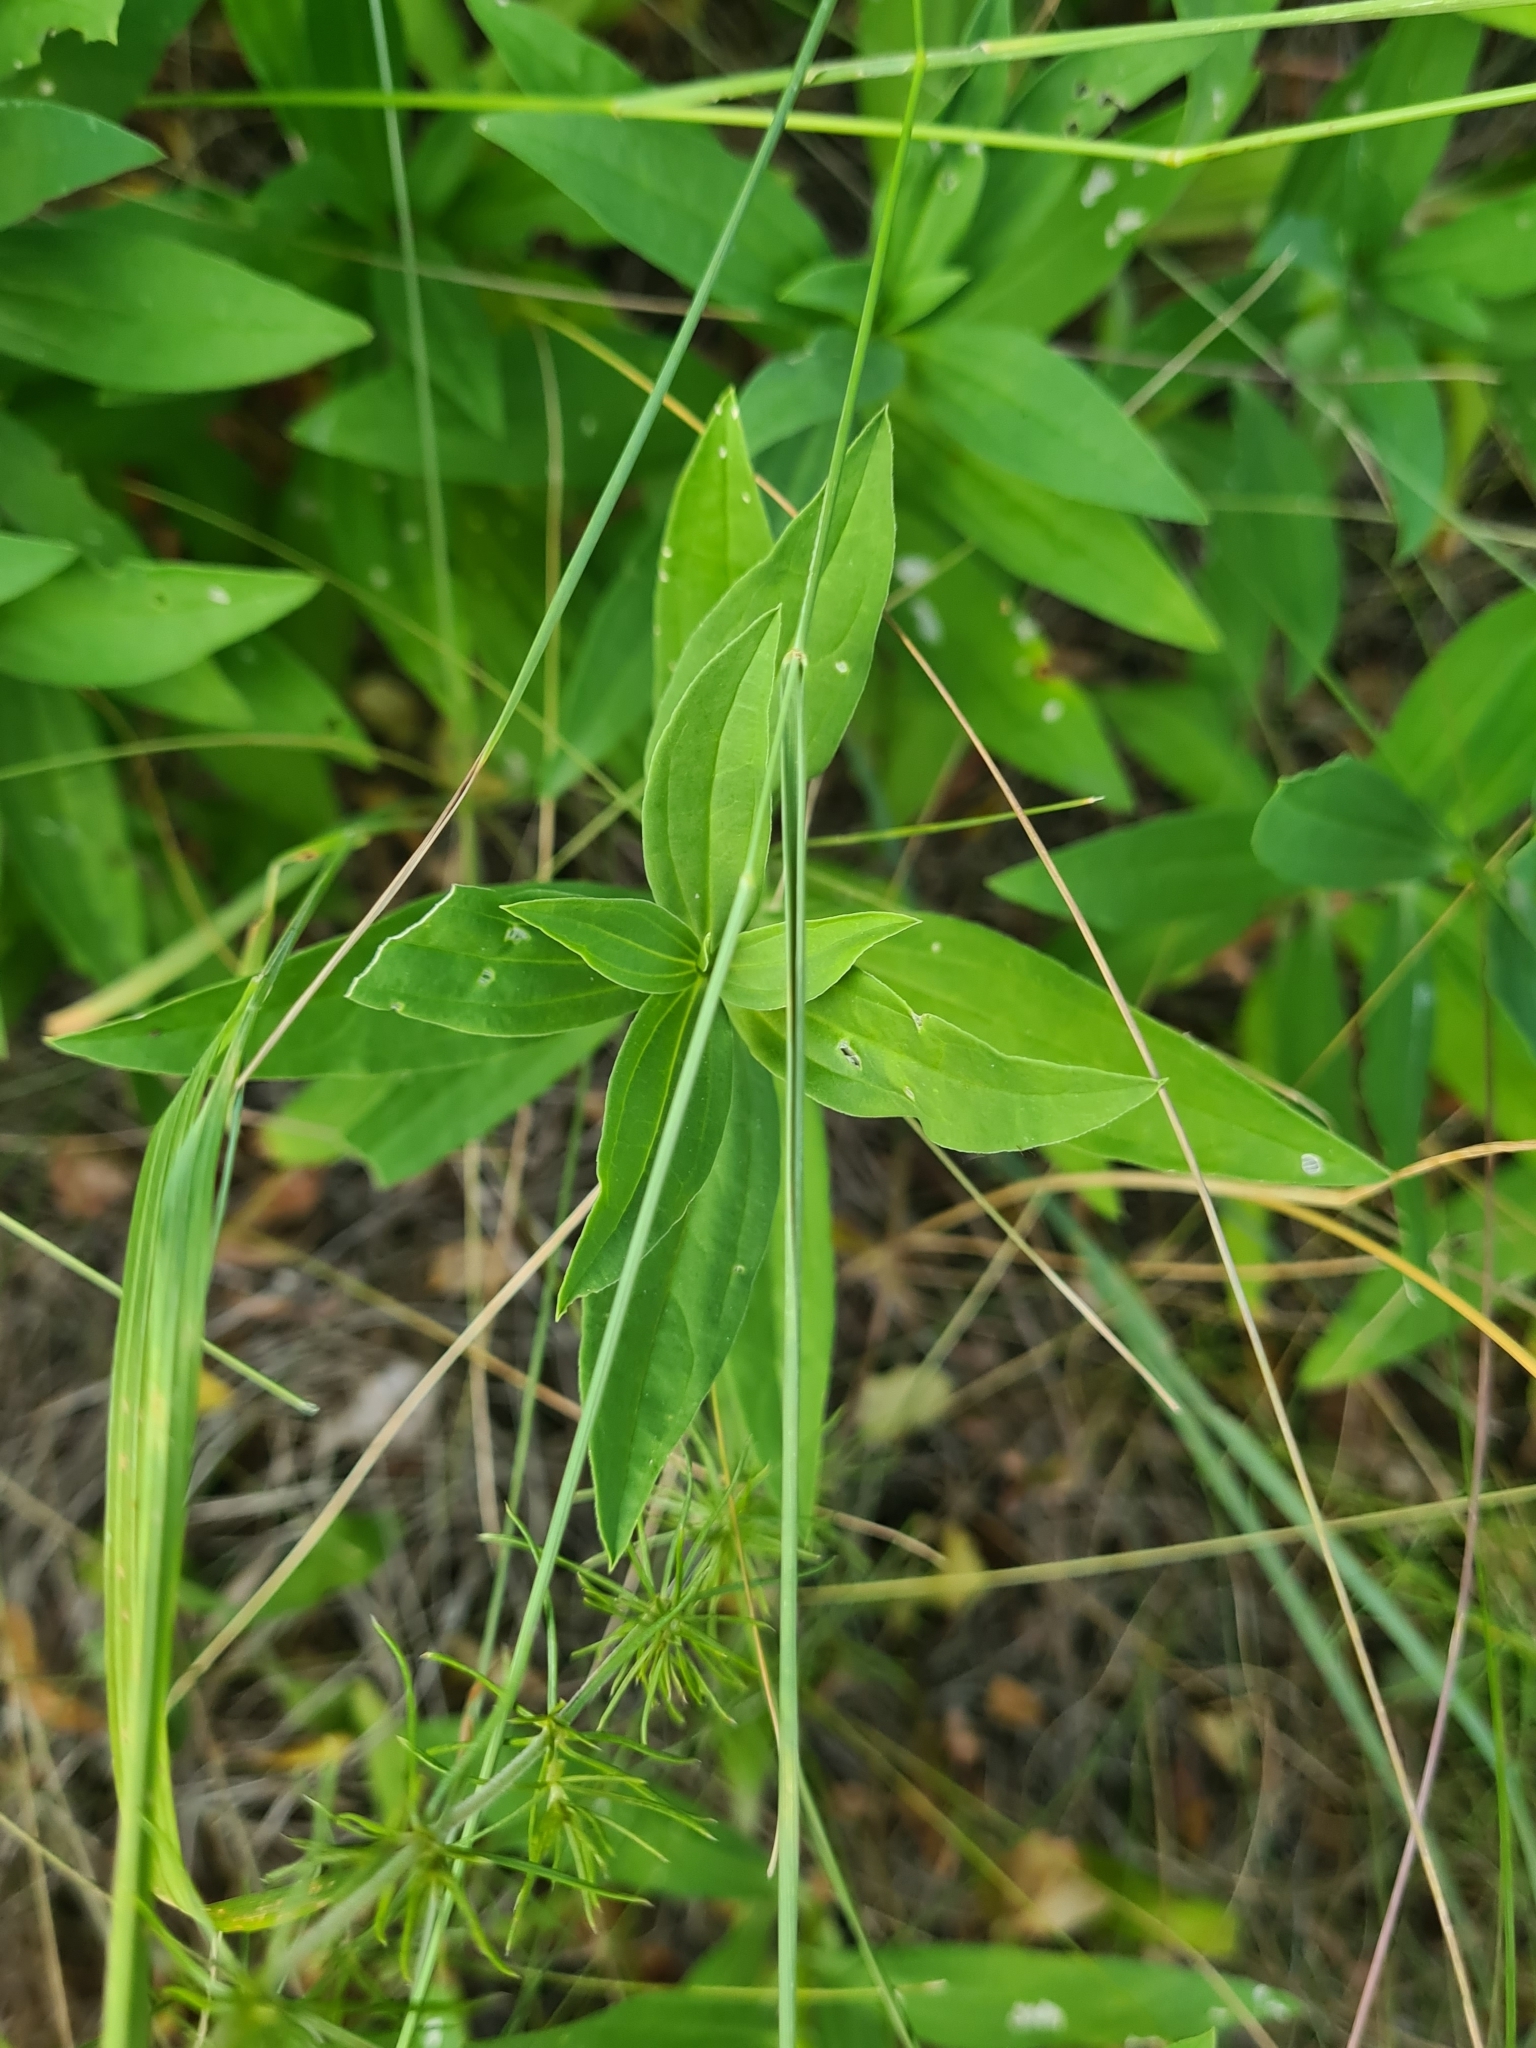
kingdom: Plantae
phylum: Tracheophyta
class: Magnoliopsida
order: Caryophyllales
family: Caryophyllaceae
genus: Saponaria
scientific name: Saponaria officinalis
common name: Soapwort
